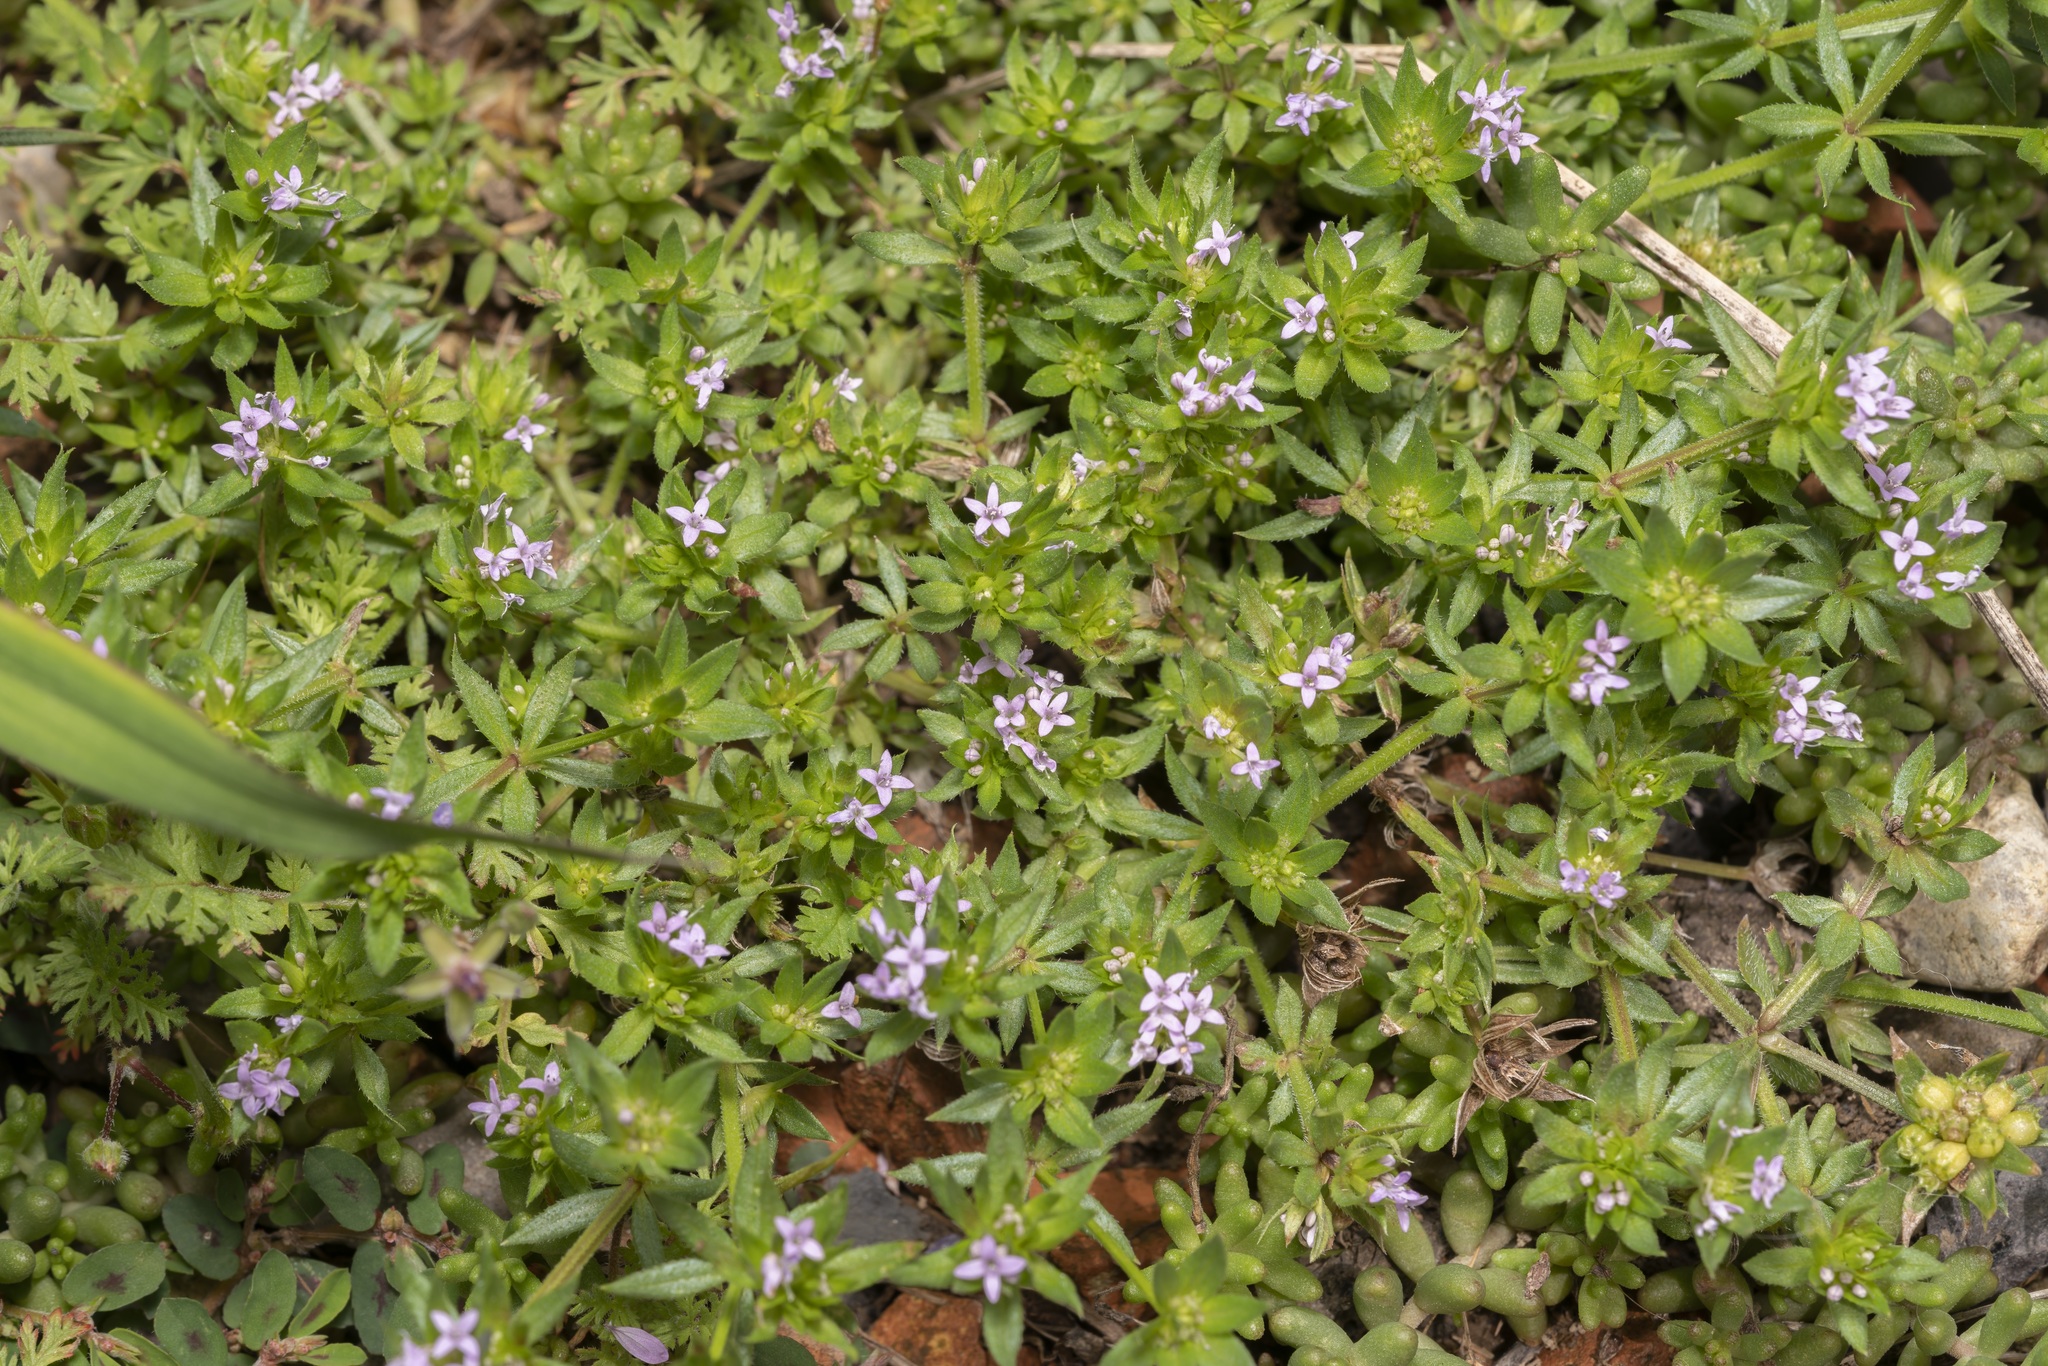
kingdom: Plantae
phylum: Tracheophyta
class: Magnoliopsida
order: Gentianales
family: Rubiaceae
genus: Sherardia
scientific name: Sherardia arvensis
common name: Field madder
